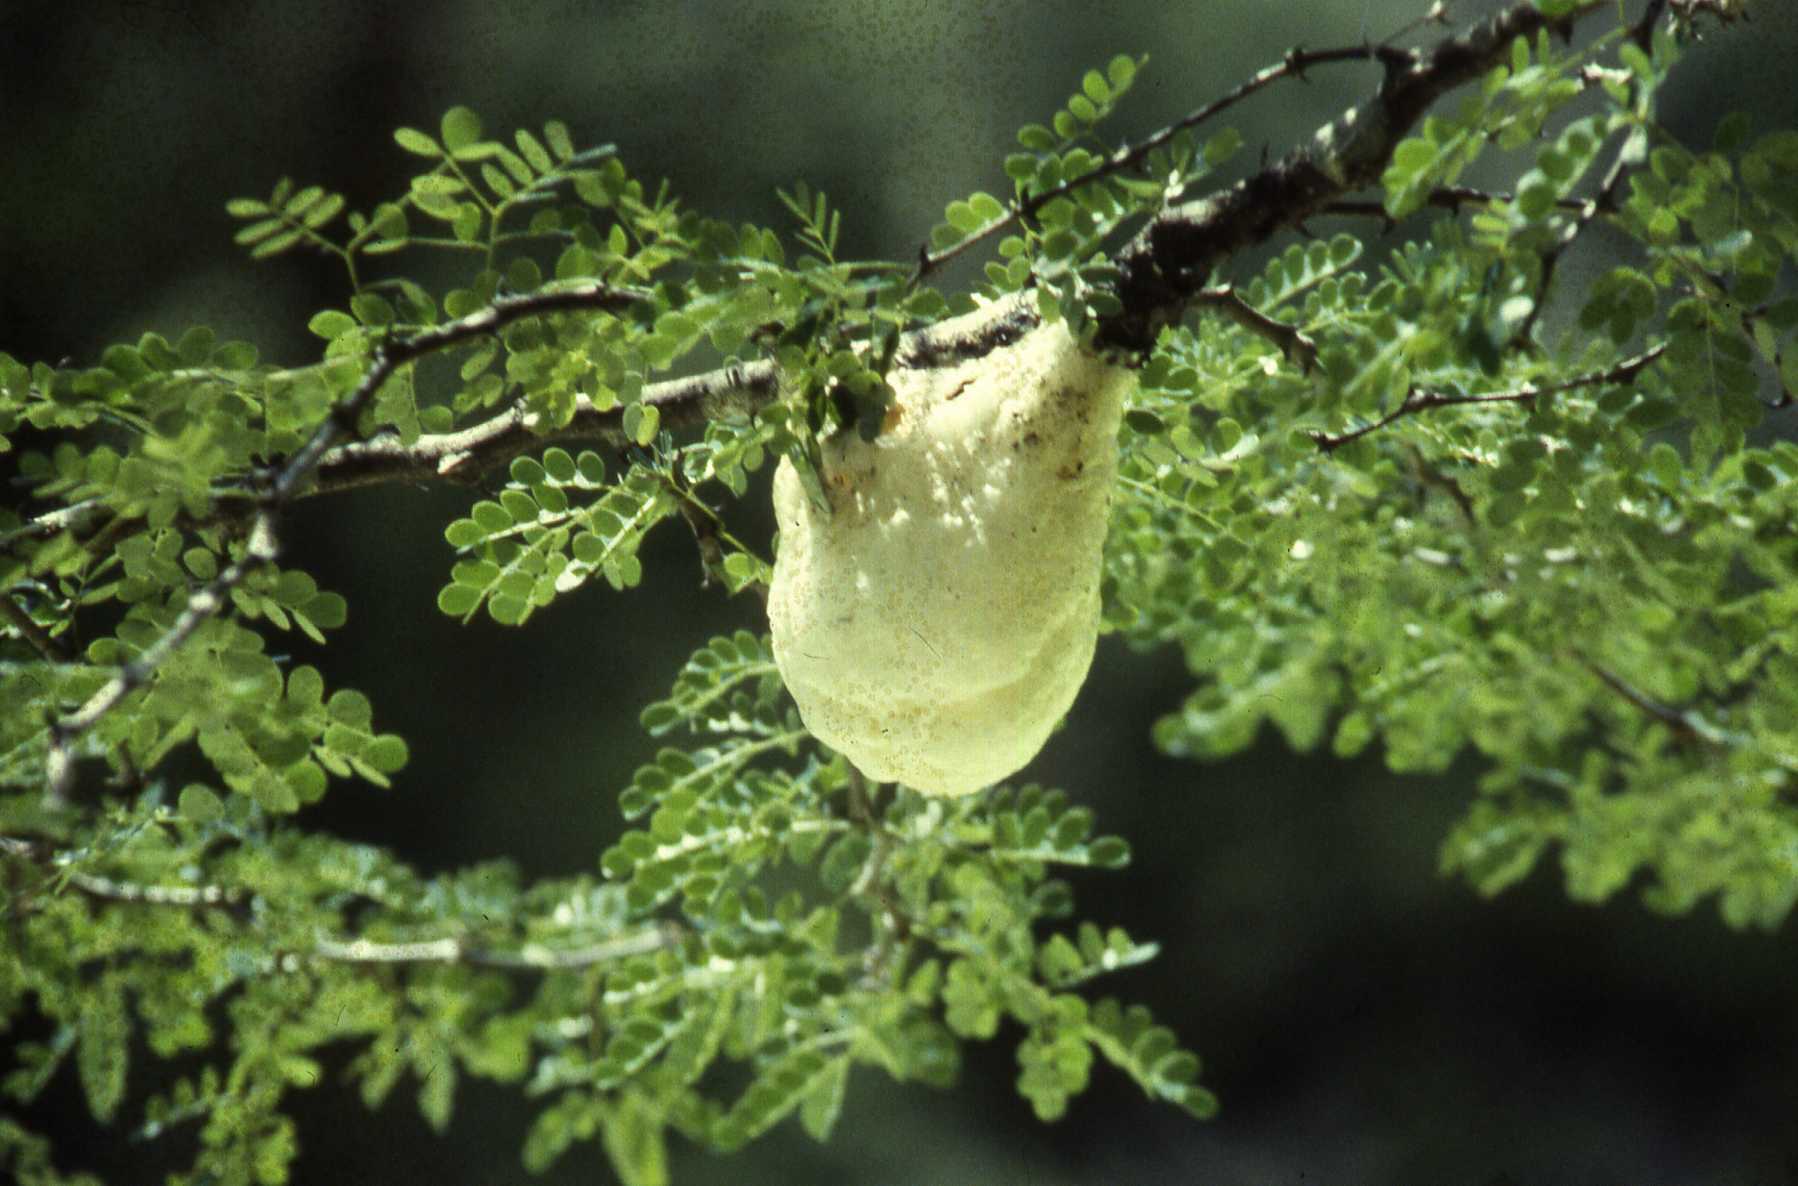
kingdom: Animalia
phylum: Chordata
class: Amphibia
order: Anura
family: Rhacophoridae
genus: Chiromantis
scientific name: Chiromantis xerampelina
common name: African gray treefrog
